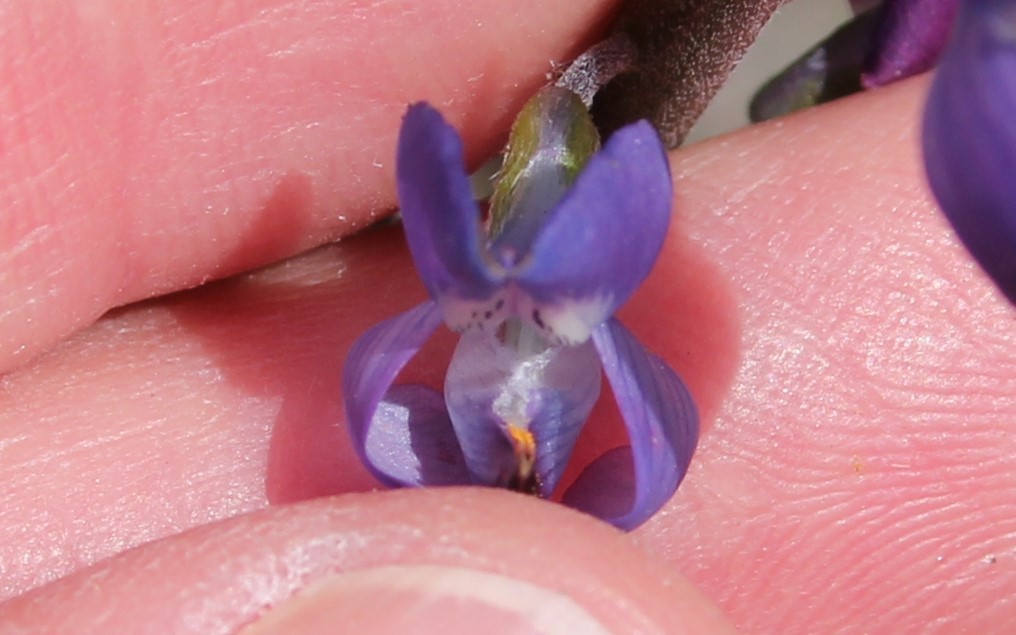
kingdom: Plantae
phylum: Tracheophyta
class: Magnoliopsida
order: Fabales
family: Fabaceae
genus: Lupinus
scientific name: Lupinus truncatus
